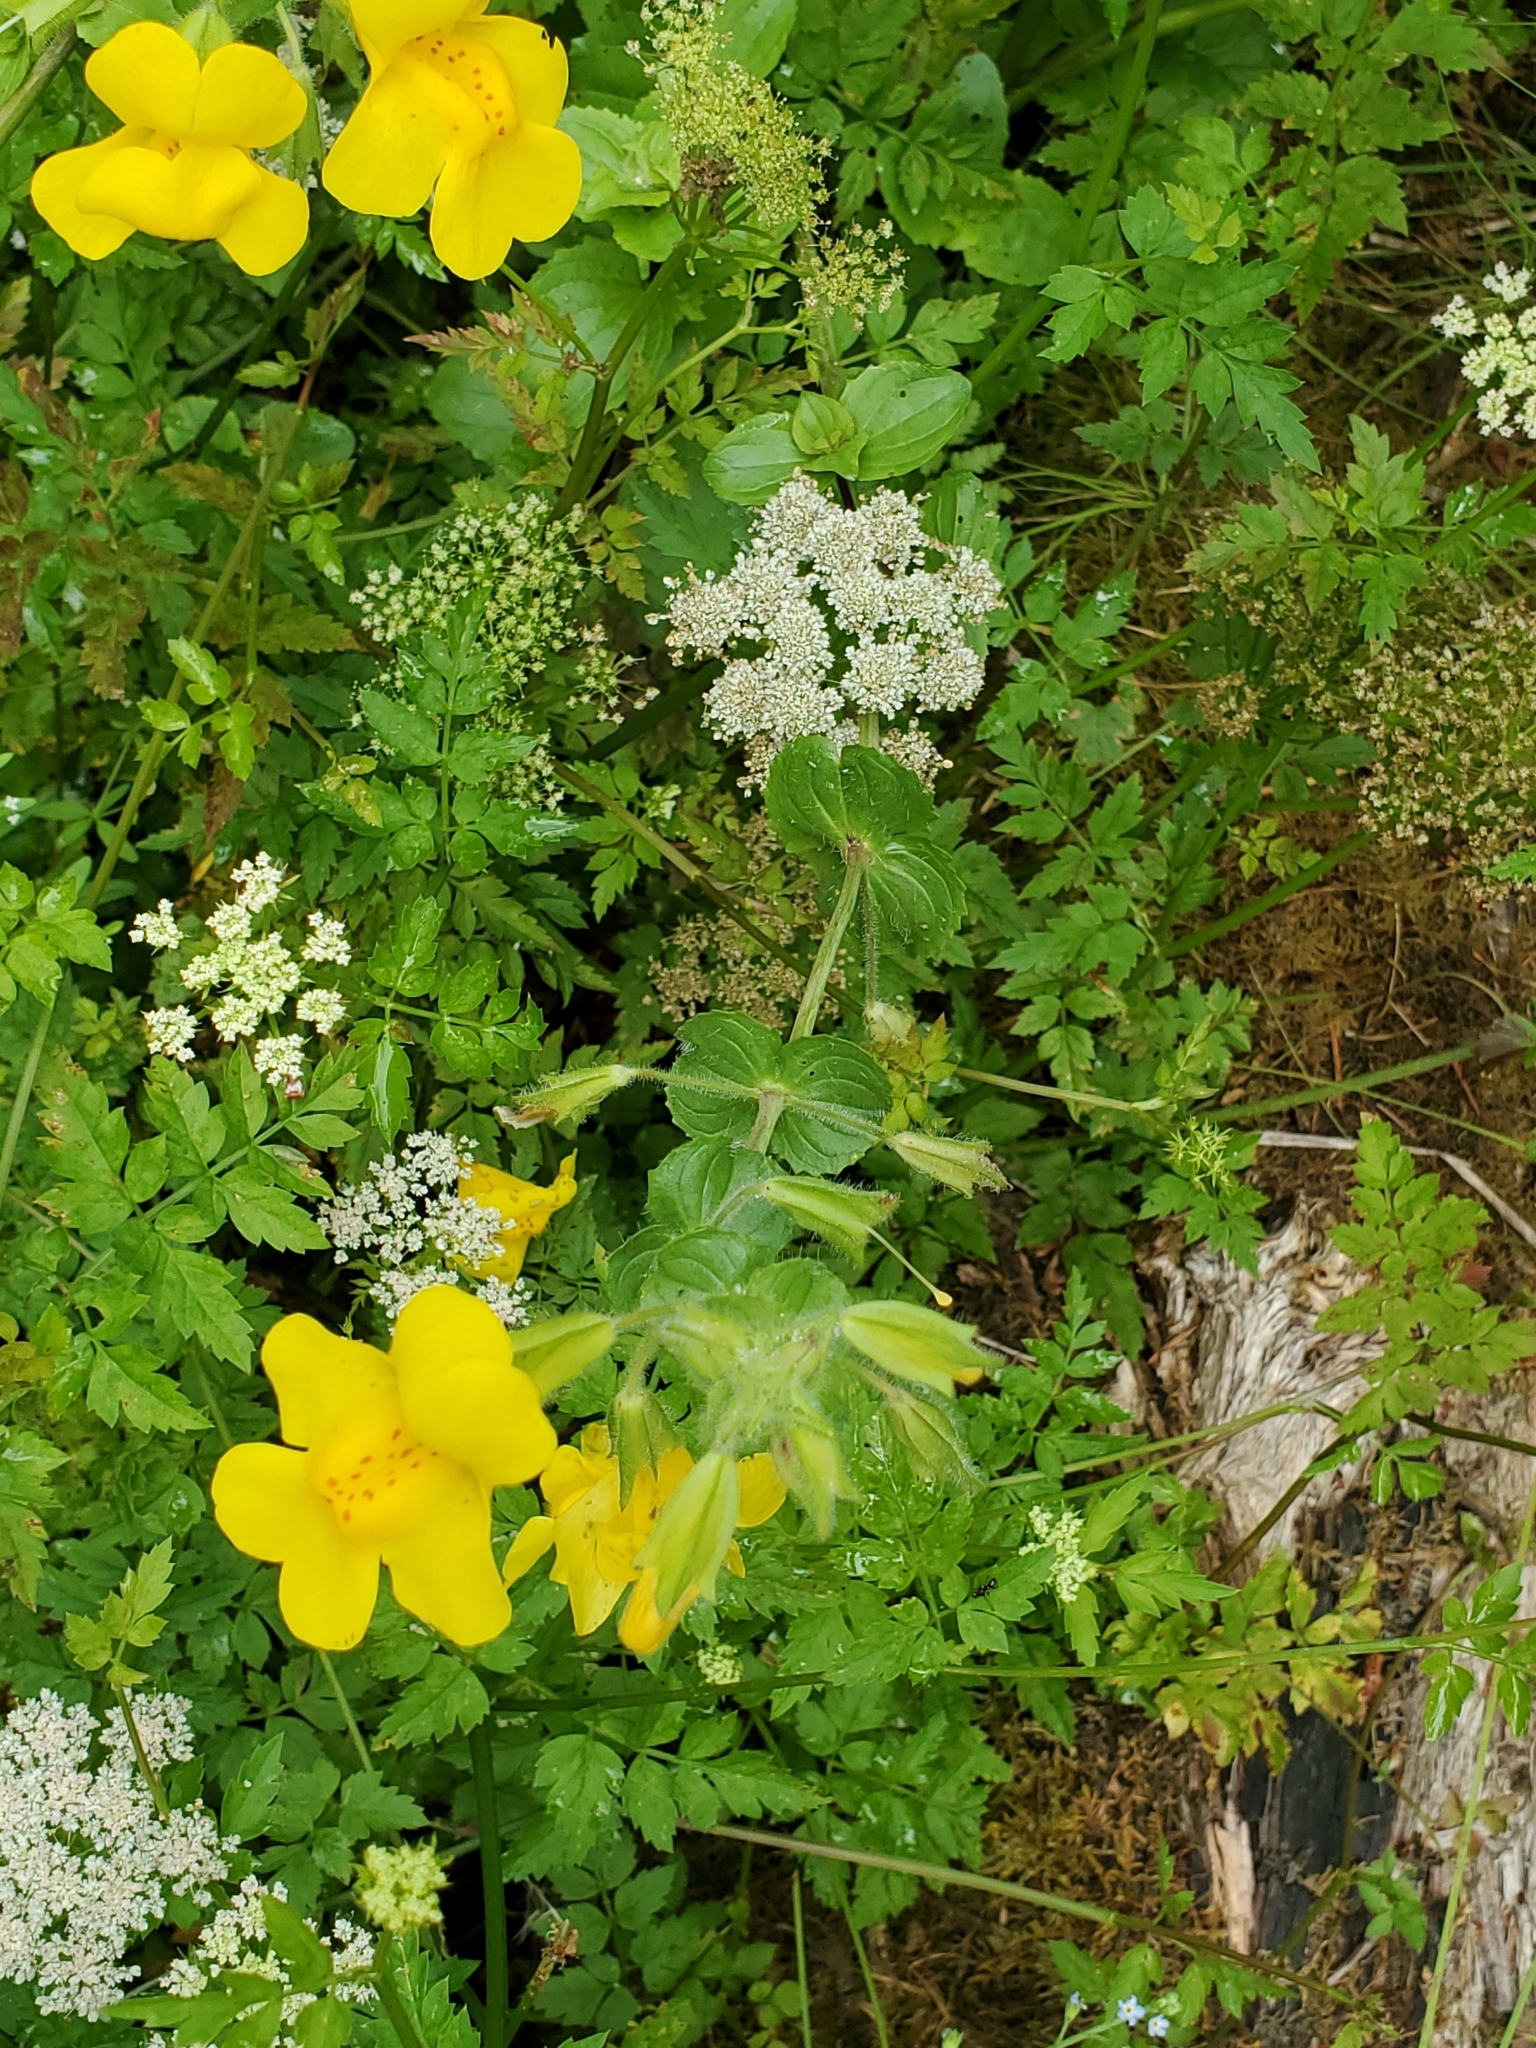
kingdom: Plantae
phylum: Tracheophyta
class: Magnoliopsida
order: Lamiales
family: Phrymaceae
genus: Erythranthe
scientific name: Erythranthe guttata
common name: Monkeyflower
